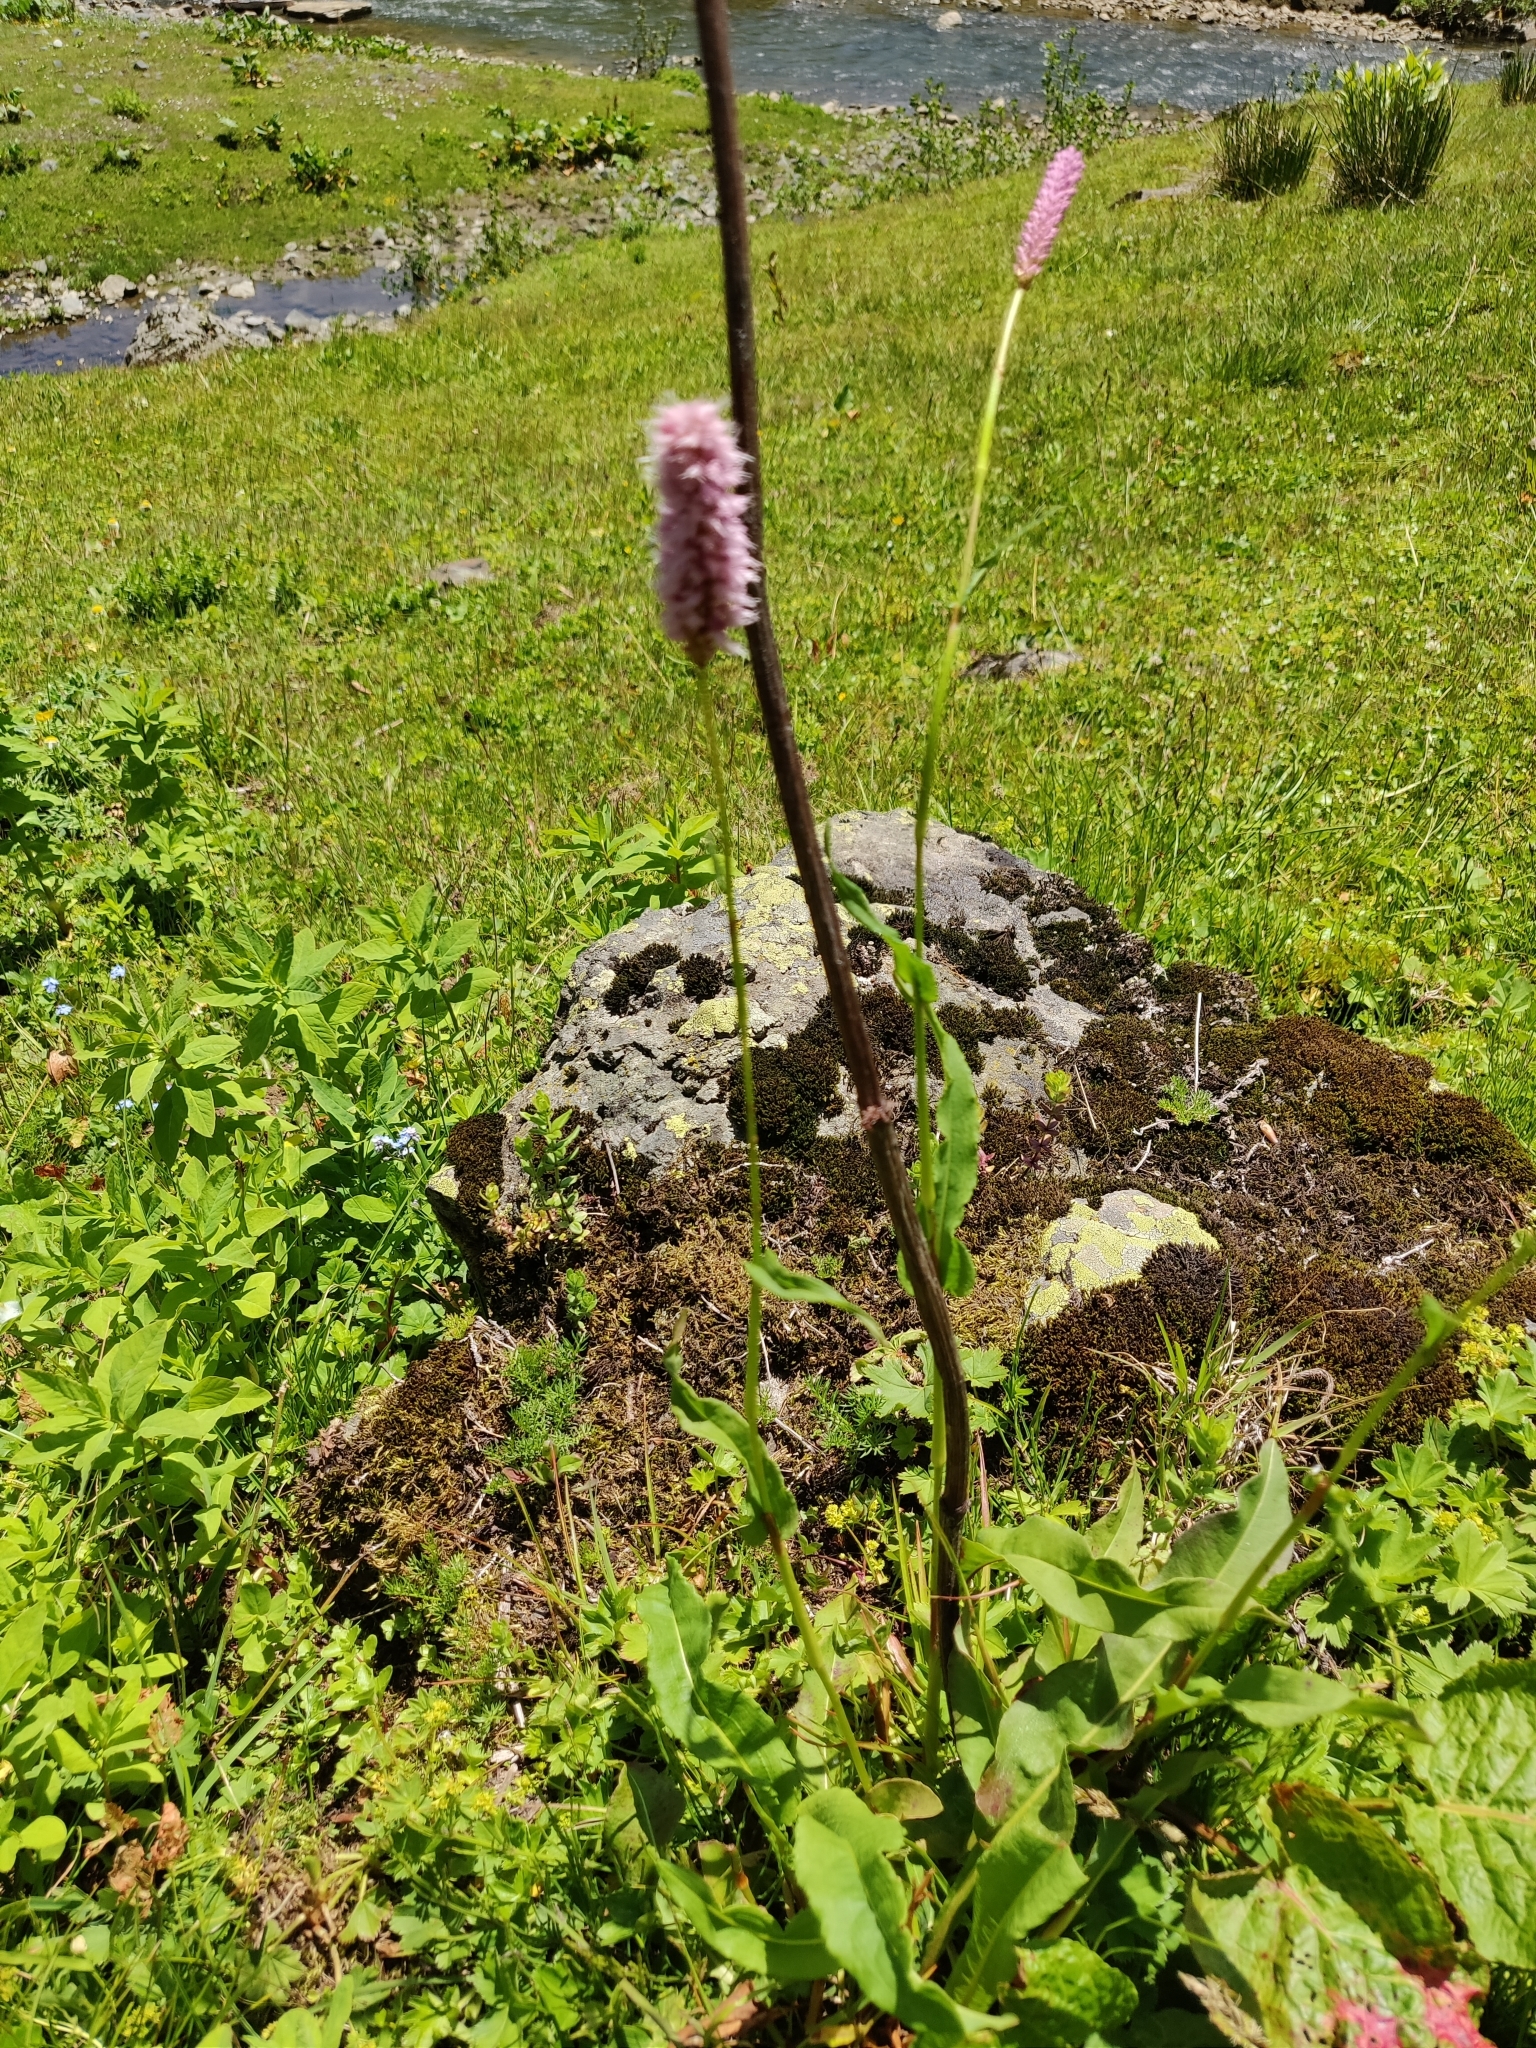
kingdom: Plantae
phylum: Tracheophyta
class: Magnoliopsida
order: Caryophyllales
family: Polygonaceae
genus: Bistorta
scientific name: Bistorta officinalis
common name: Common bistort
